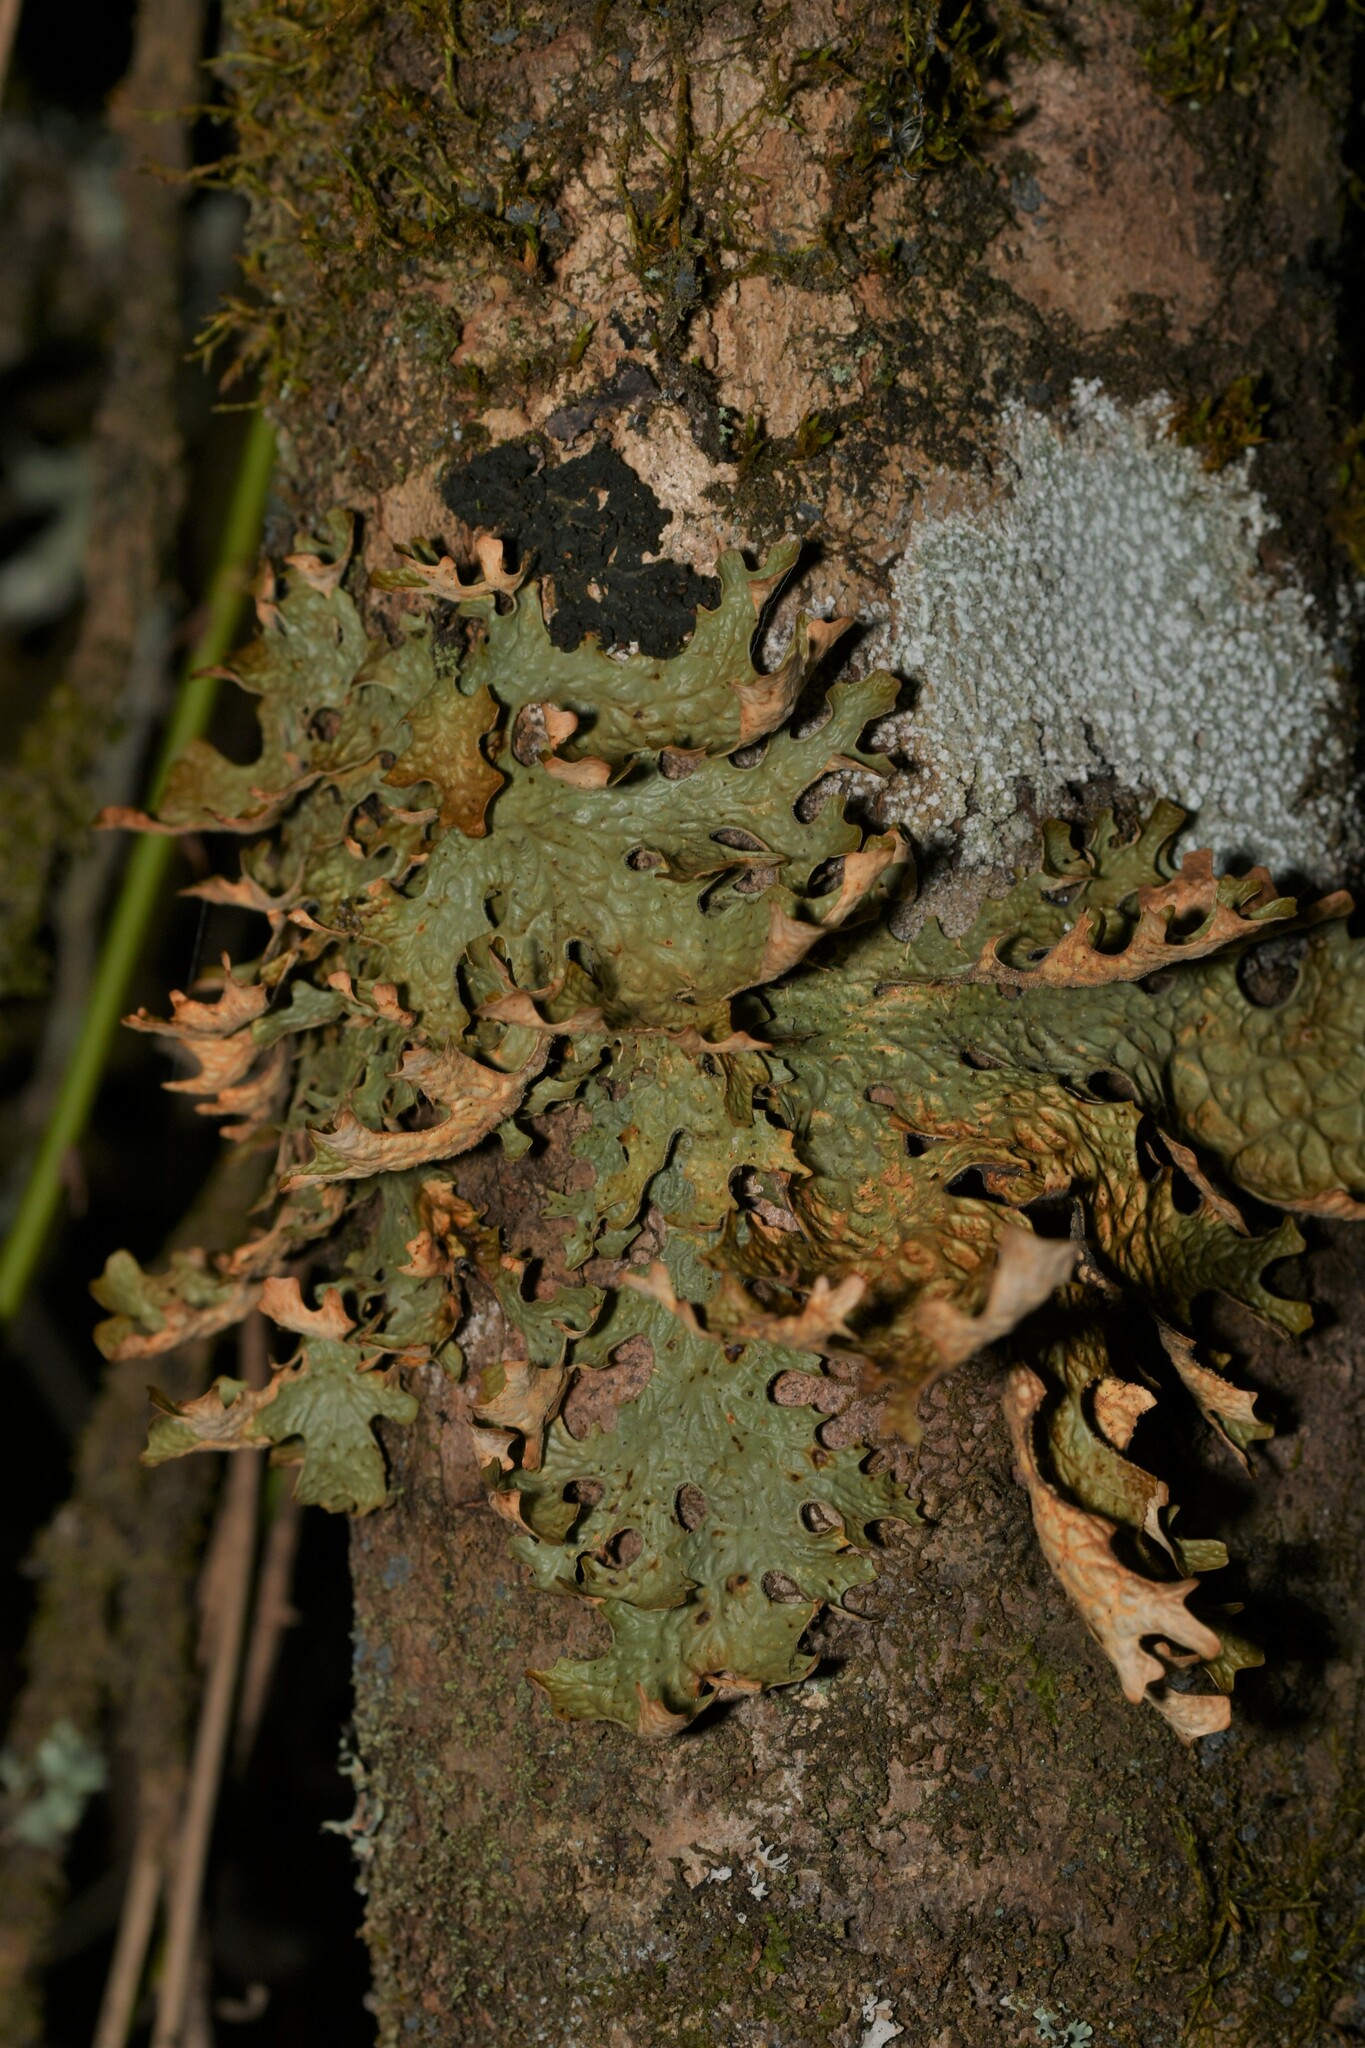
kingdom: Fungi
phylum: Ascomycota
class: Lecanoromycetes
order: Peltigerales
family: Lobariaceae
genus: Lobaria
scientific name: Lobaria pulmonaria
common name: Lungwort
